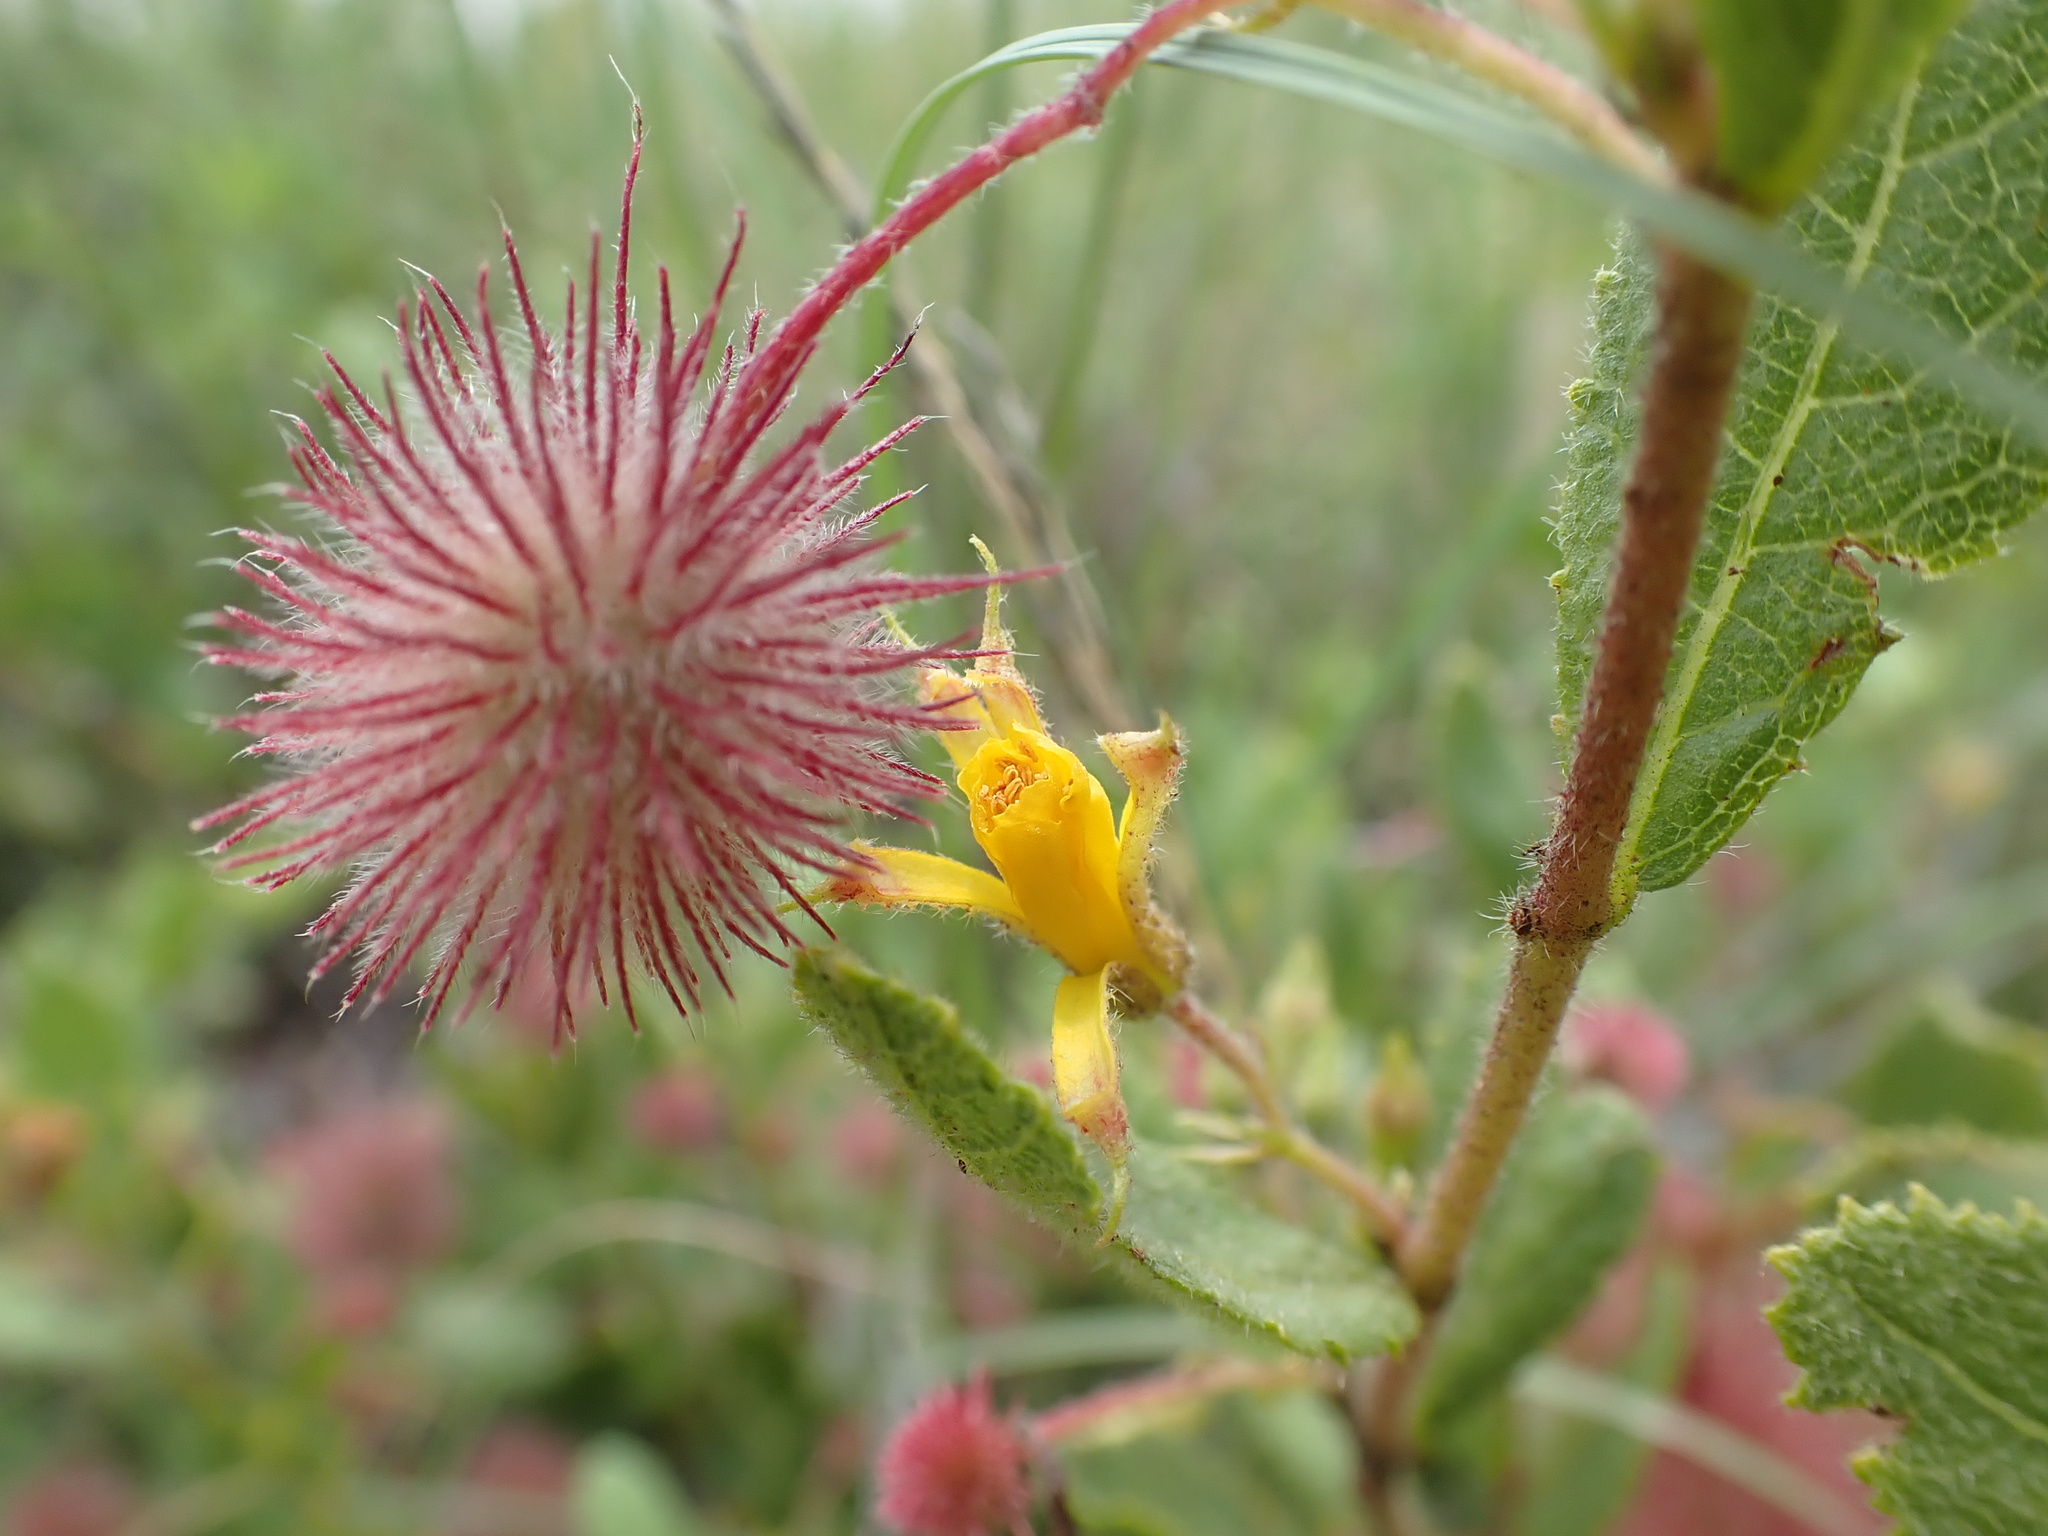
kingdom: Plantae
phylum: Tracheophyta
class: Magnoliopsida
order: Malvales
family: Malvaceae
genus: Triumfetta
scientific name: Triumfetta sonderi
